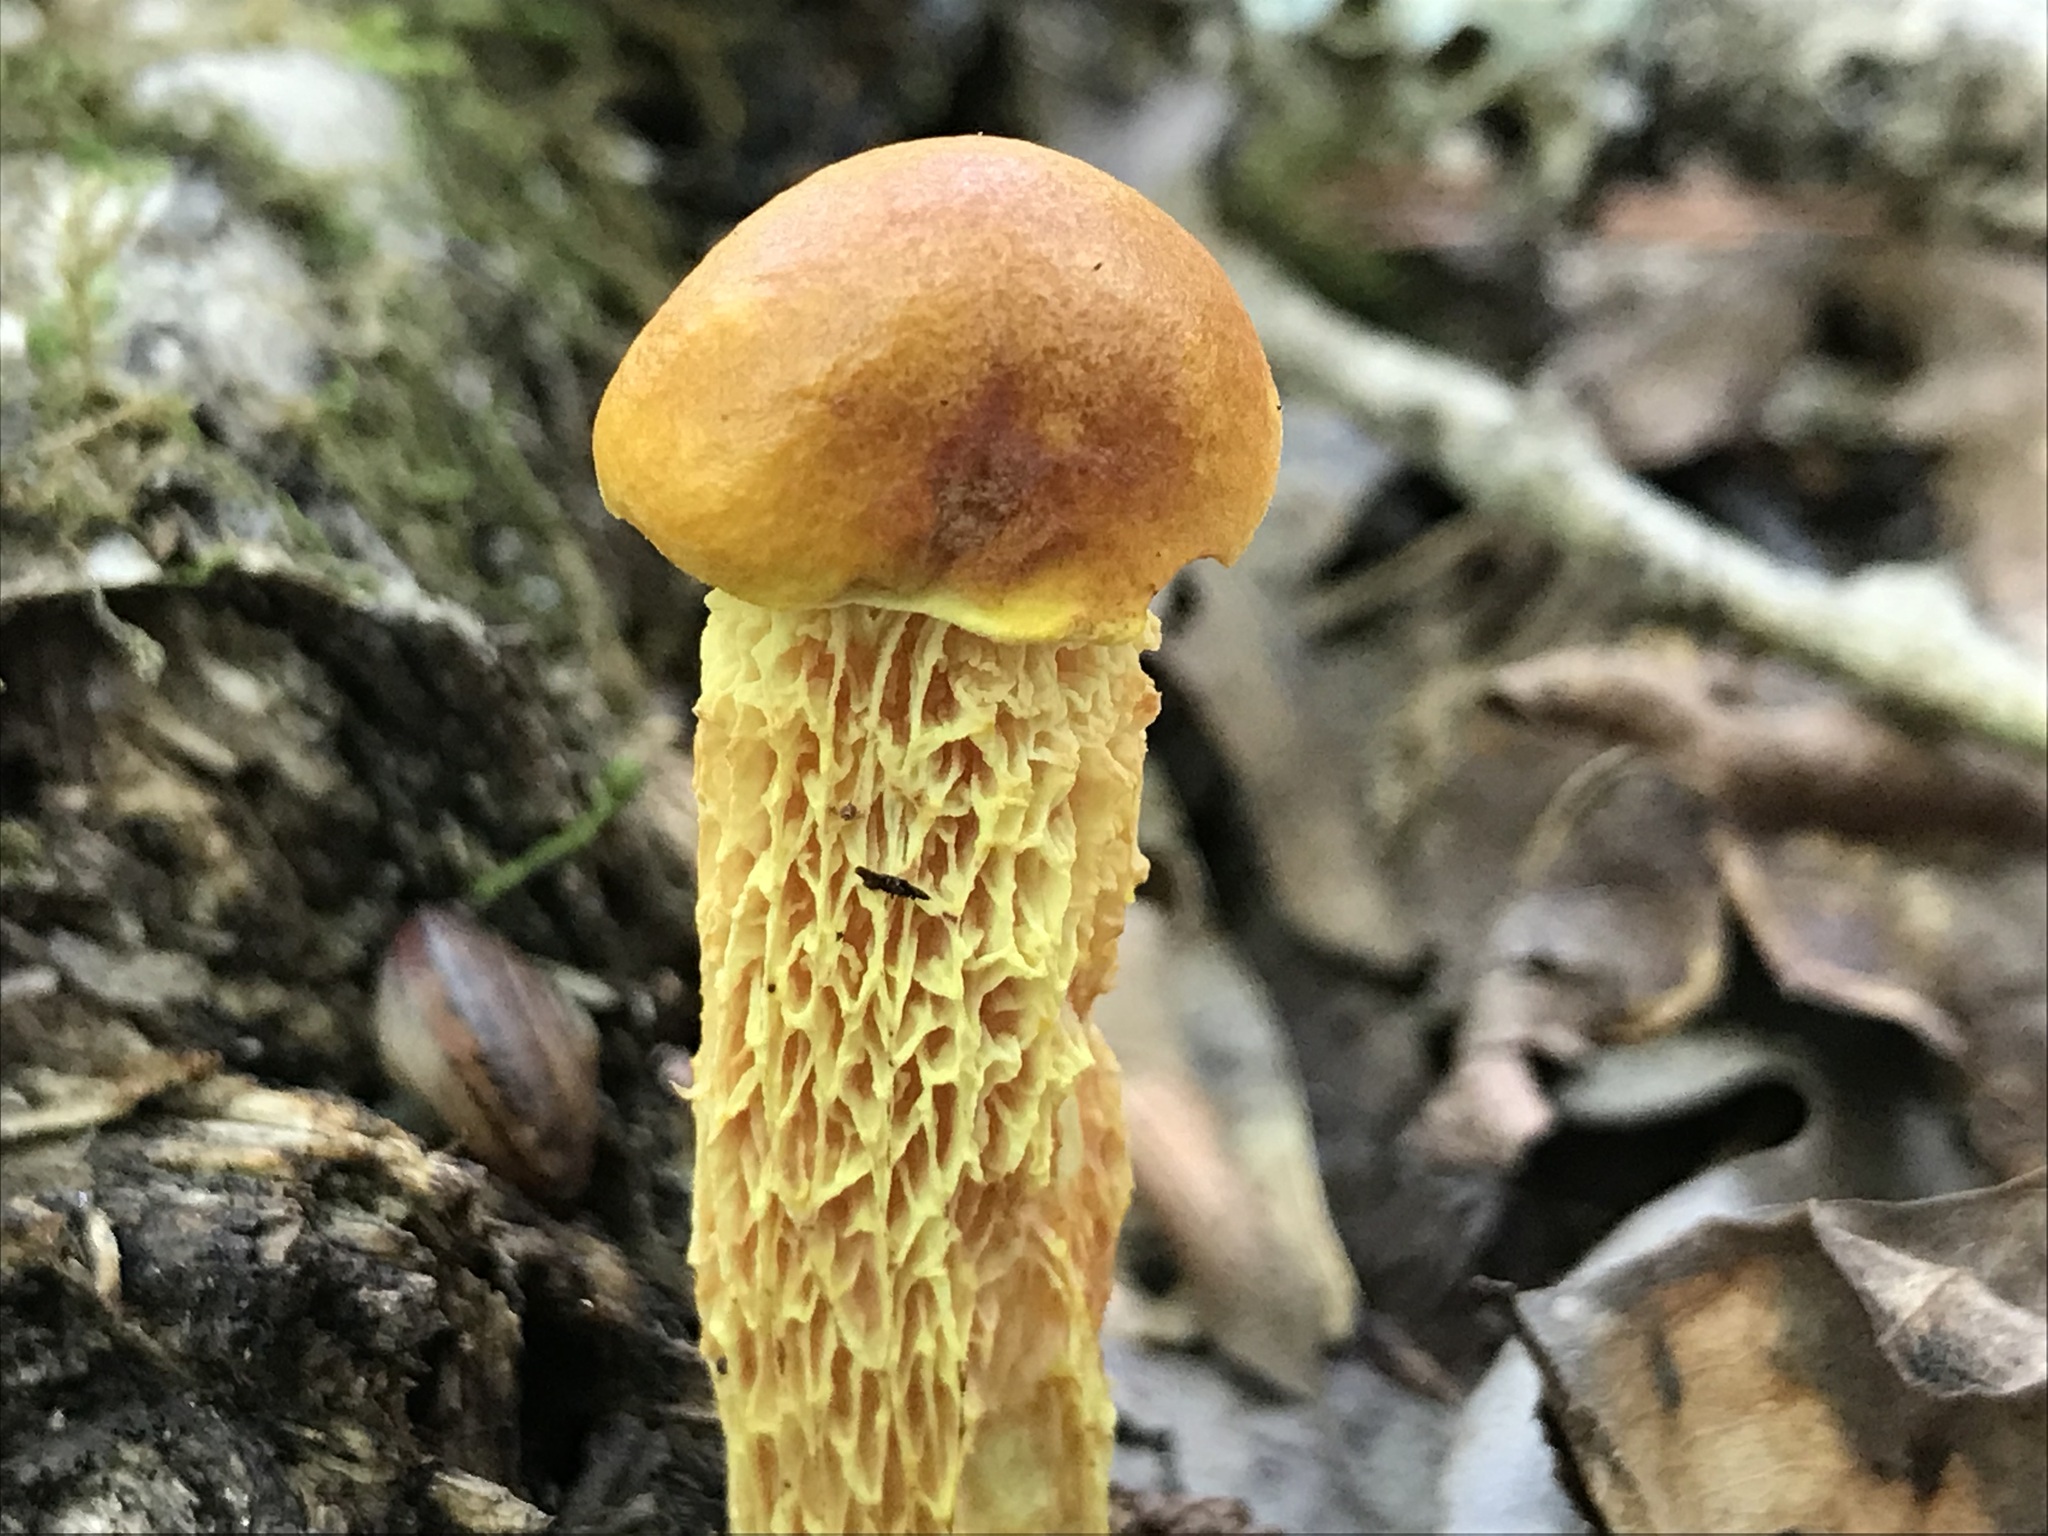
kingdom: Fungi
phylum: Basidiomycota
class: Agaricomycetes
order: Boletales
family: Boletaceae
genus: Aureoboletus
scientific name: Aureoboletus betula
